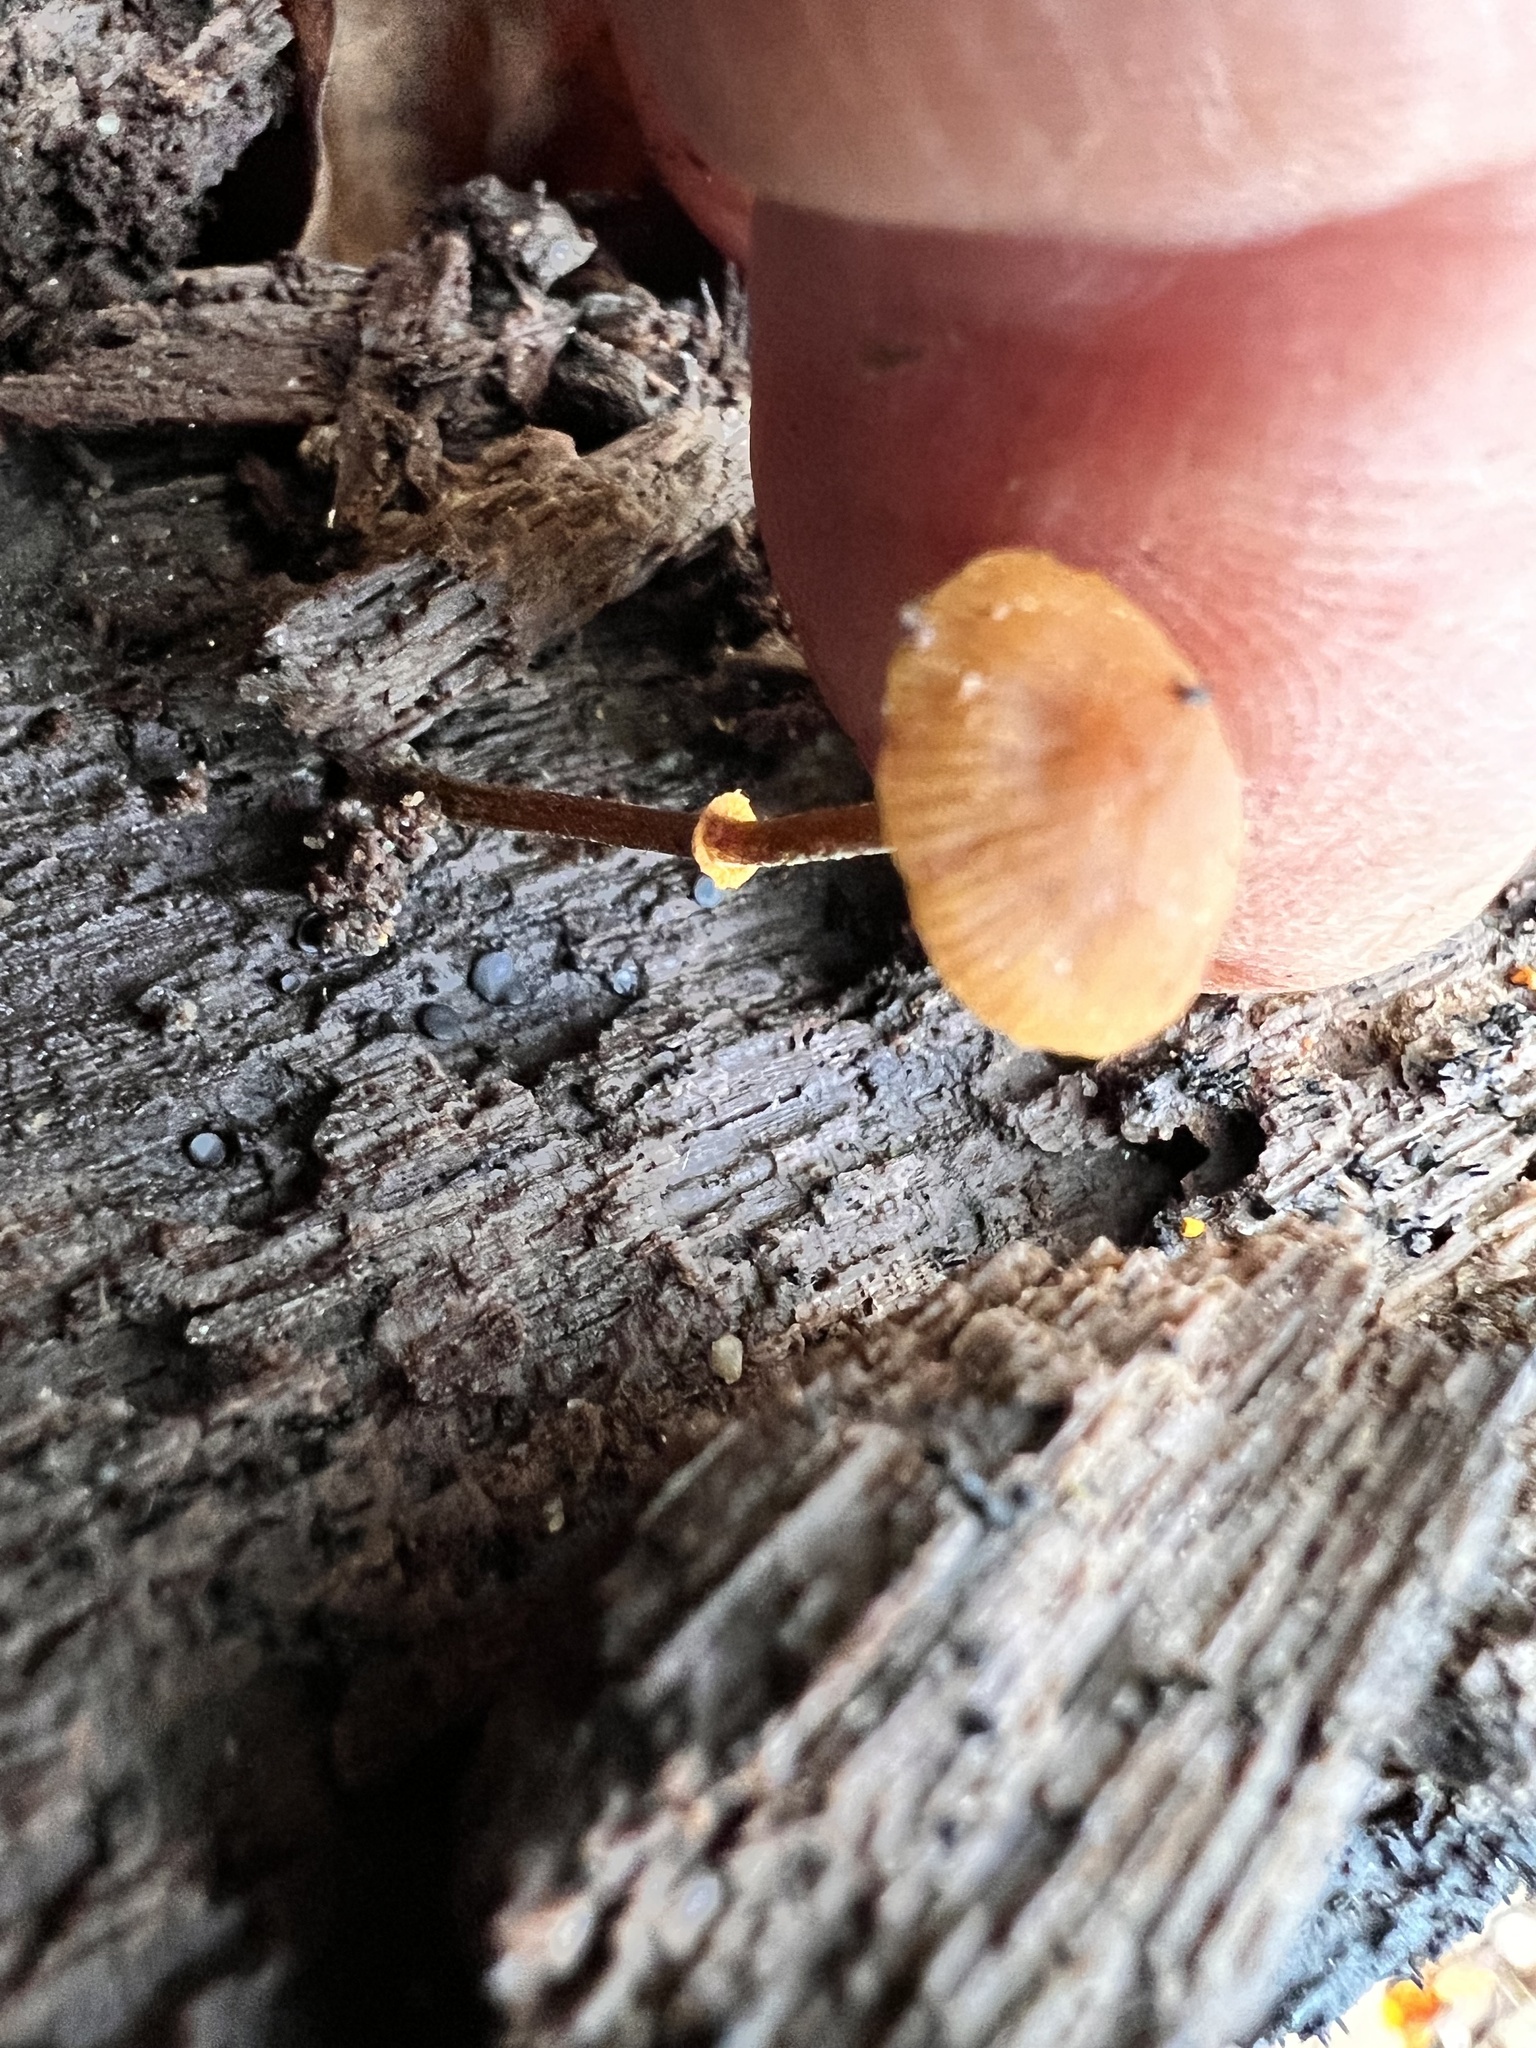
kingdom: Fungi
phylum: Basidiomycota
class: Agaricomycetes
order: Agaricales
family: Bolbitiaceae
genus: Conocybe
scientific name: Conocybe rugosa
